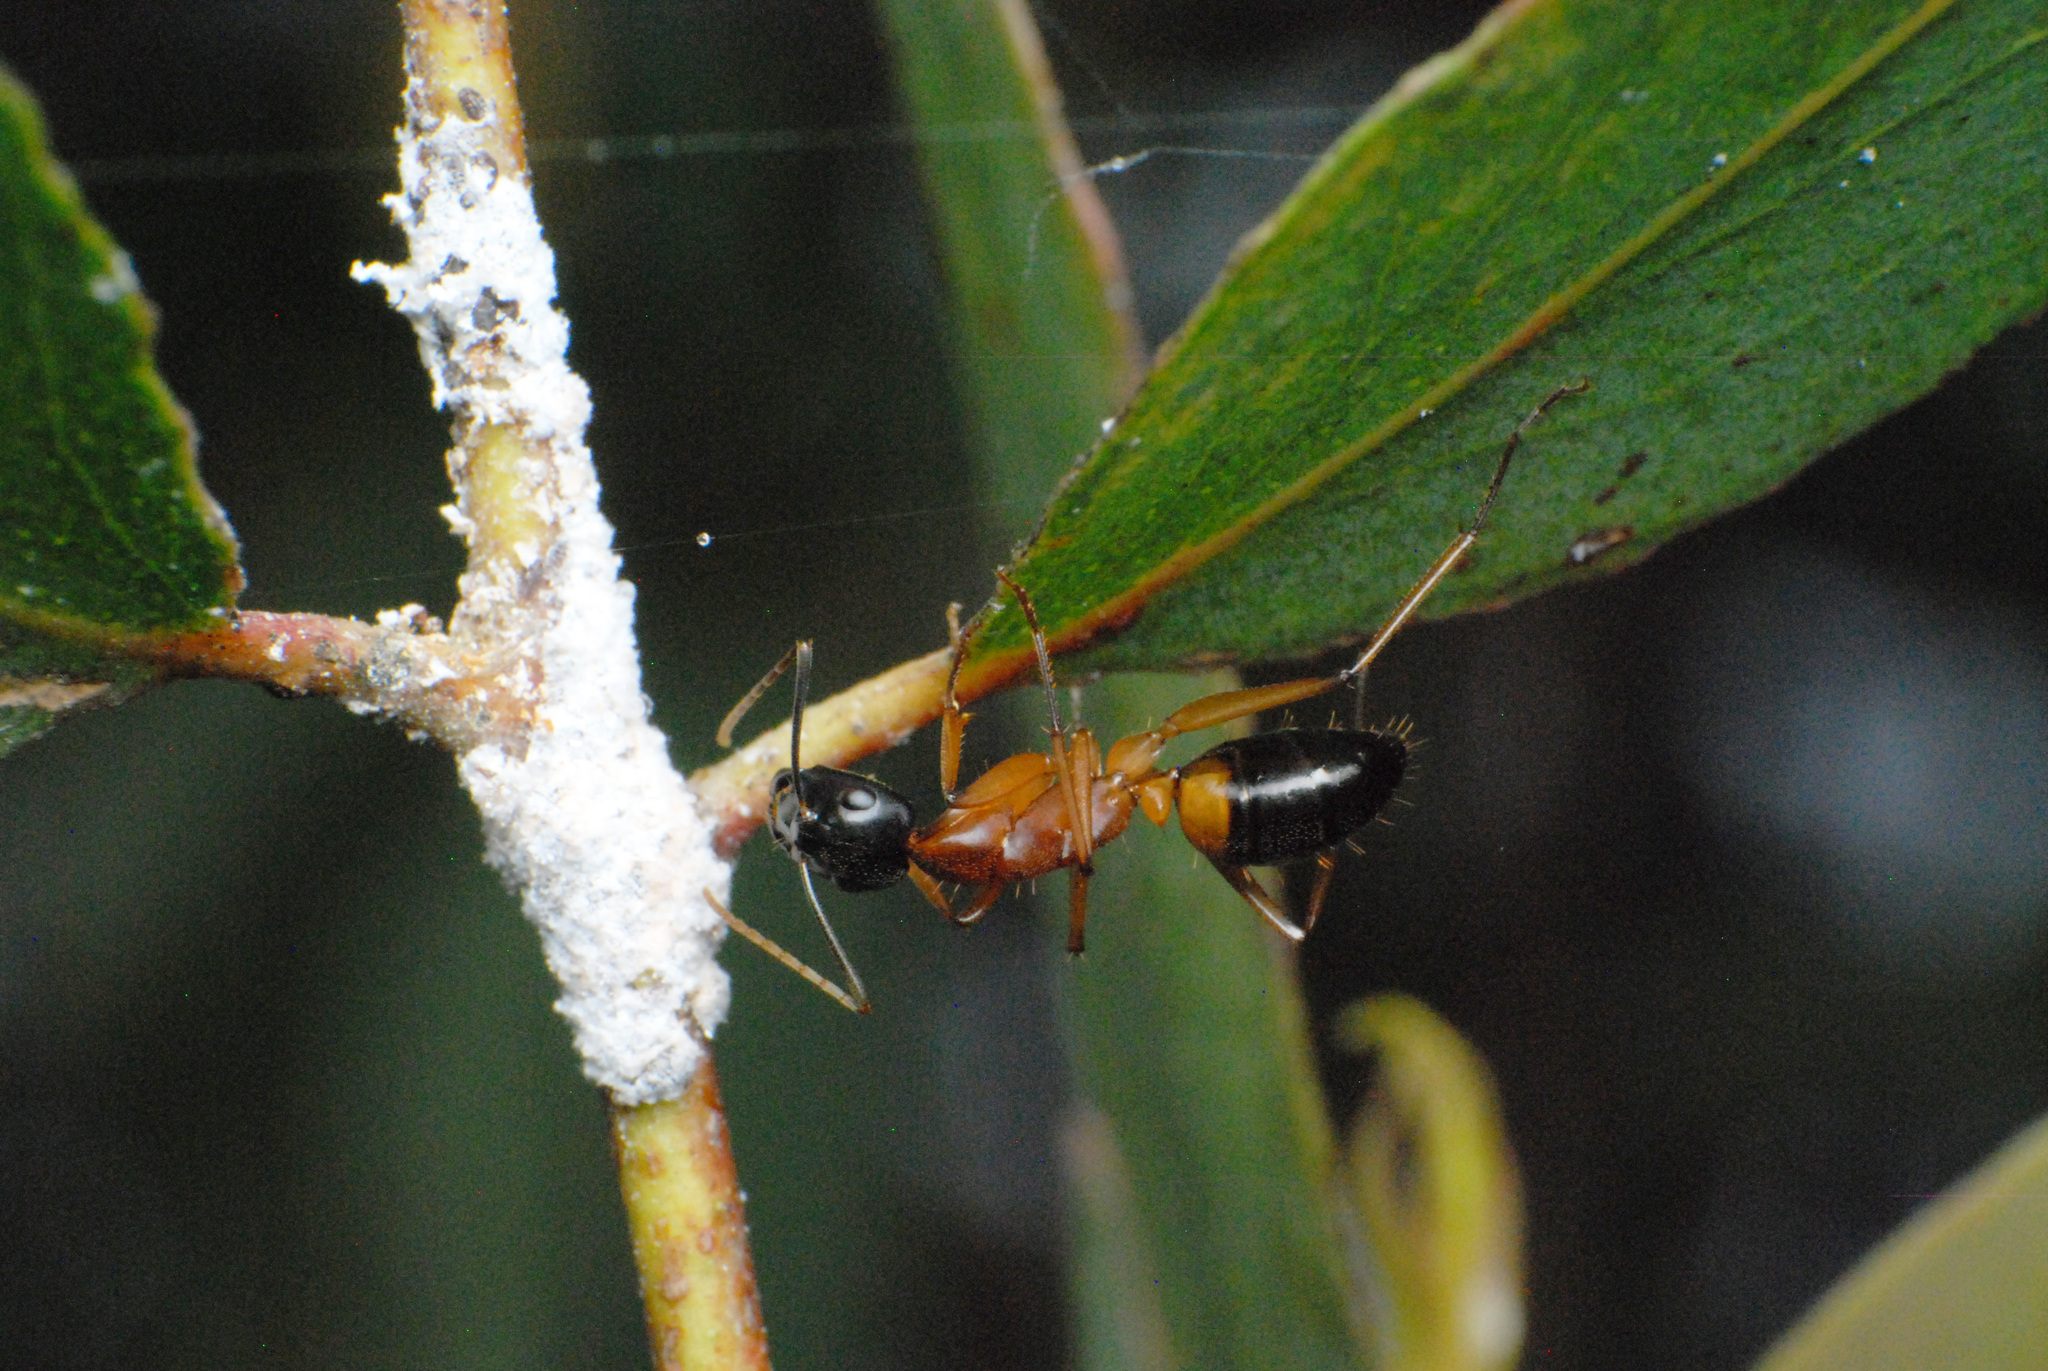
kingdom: Animalia
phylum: Arthropoda
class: Insecta
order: Hymenoptera
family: Formicidae
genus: Camponotus
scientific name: Camponotus consobrinus
